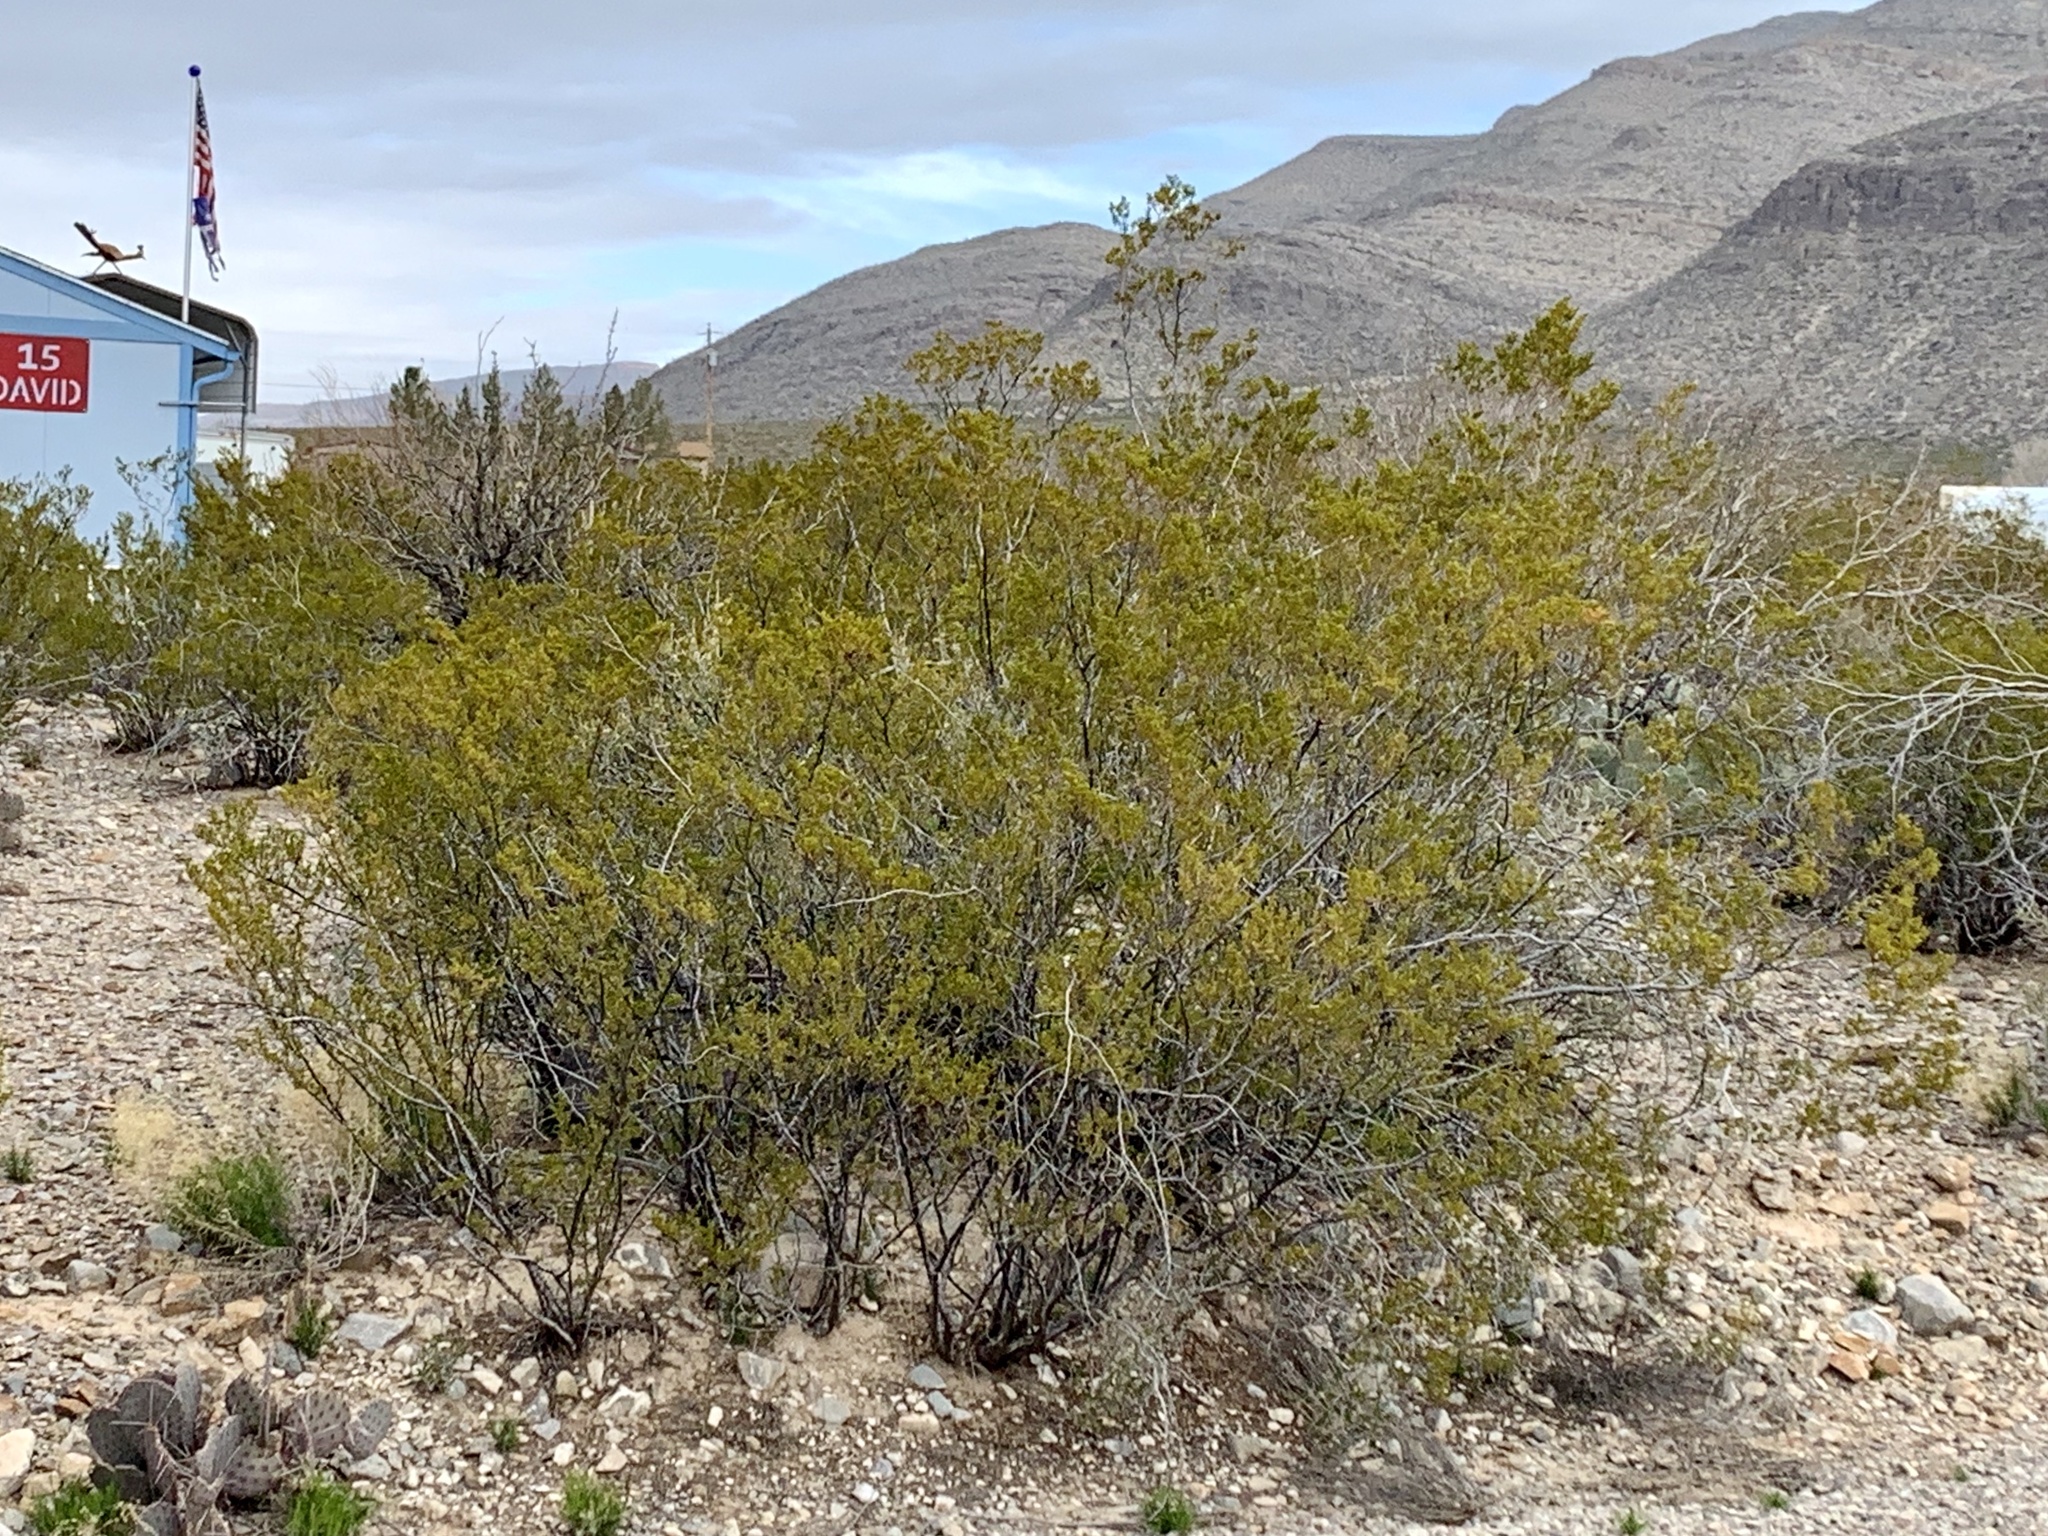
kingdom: Plantae
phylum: Tracheophyta
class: Magnoliopsida
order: Zygophyllales
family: Zygophyllaceae
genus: Larrea
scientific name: Larrea tridentata
